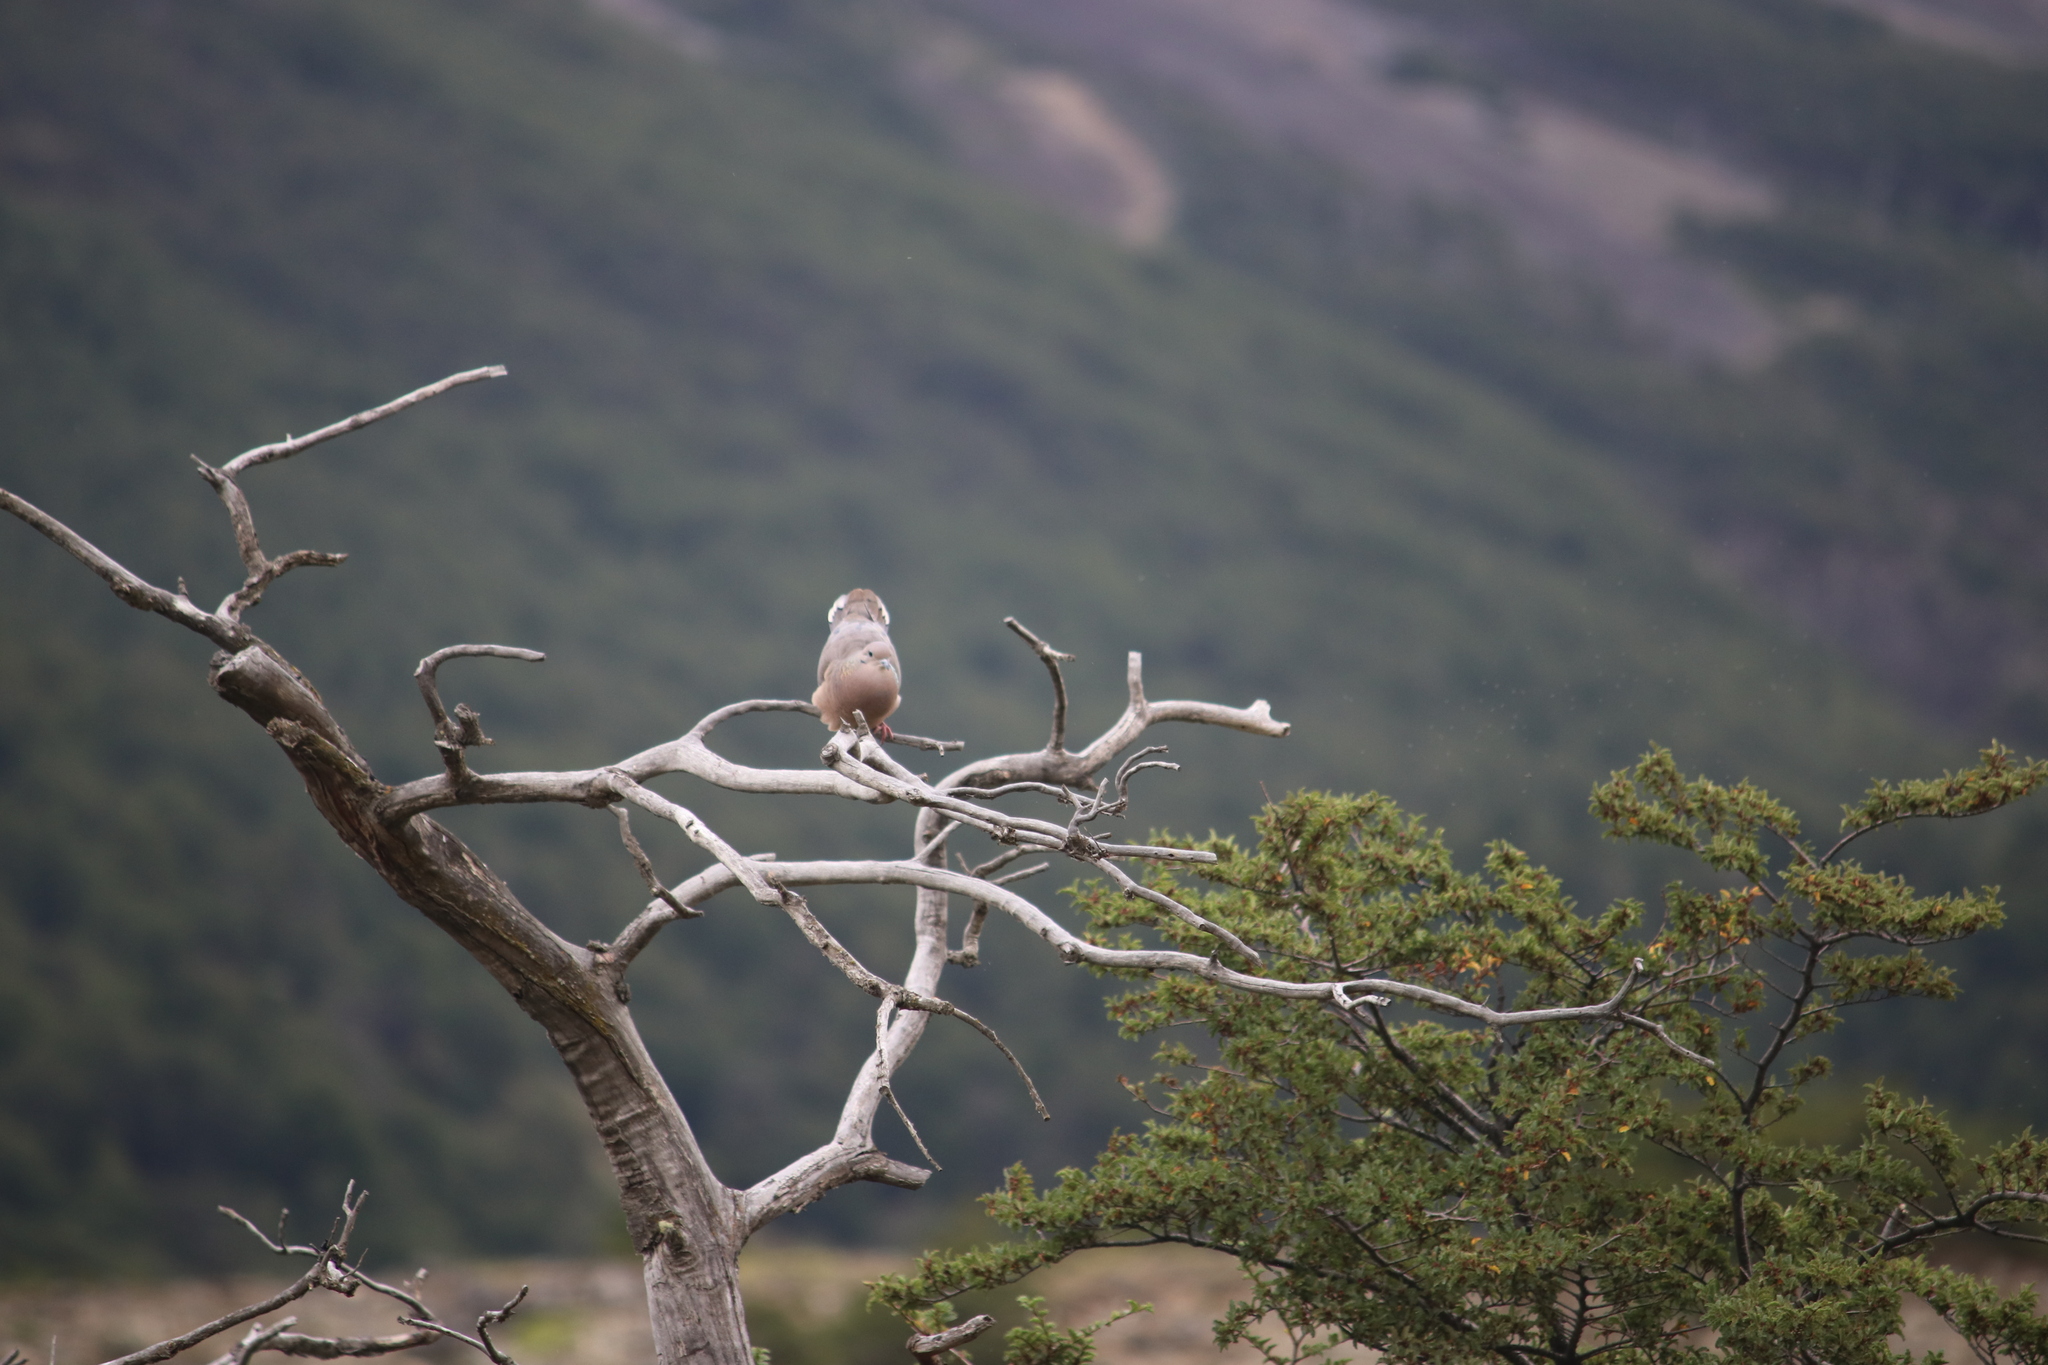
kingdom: Animalia
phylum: Chordata
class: Aves
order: Columbiformes
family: Columbidae
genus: Zenaida
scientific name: Zenaida auriculata
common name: Eared dove
